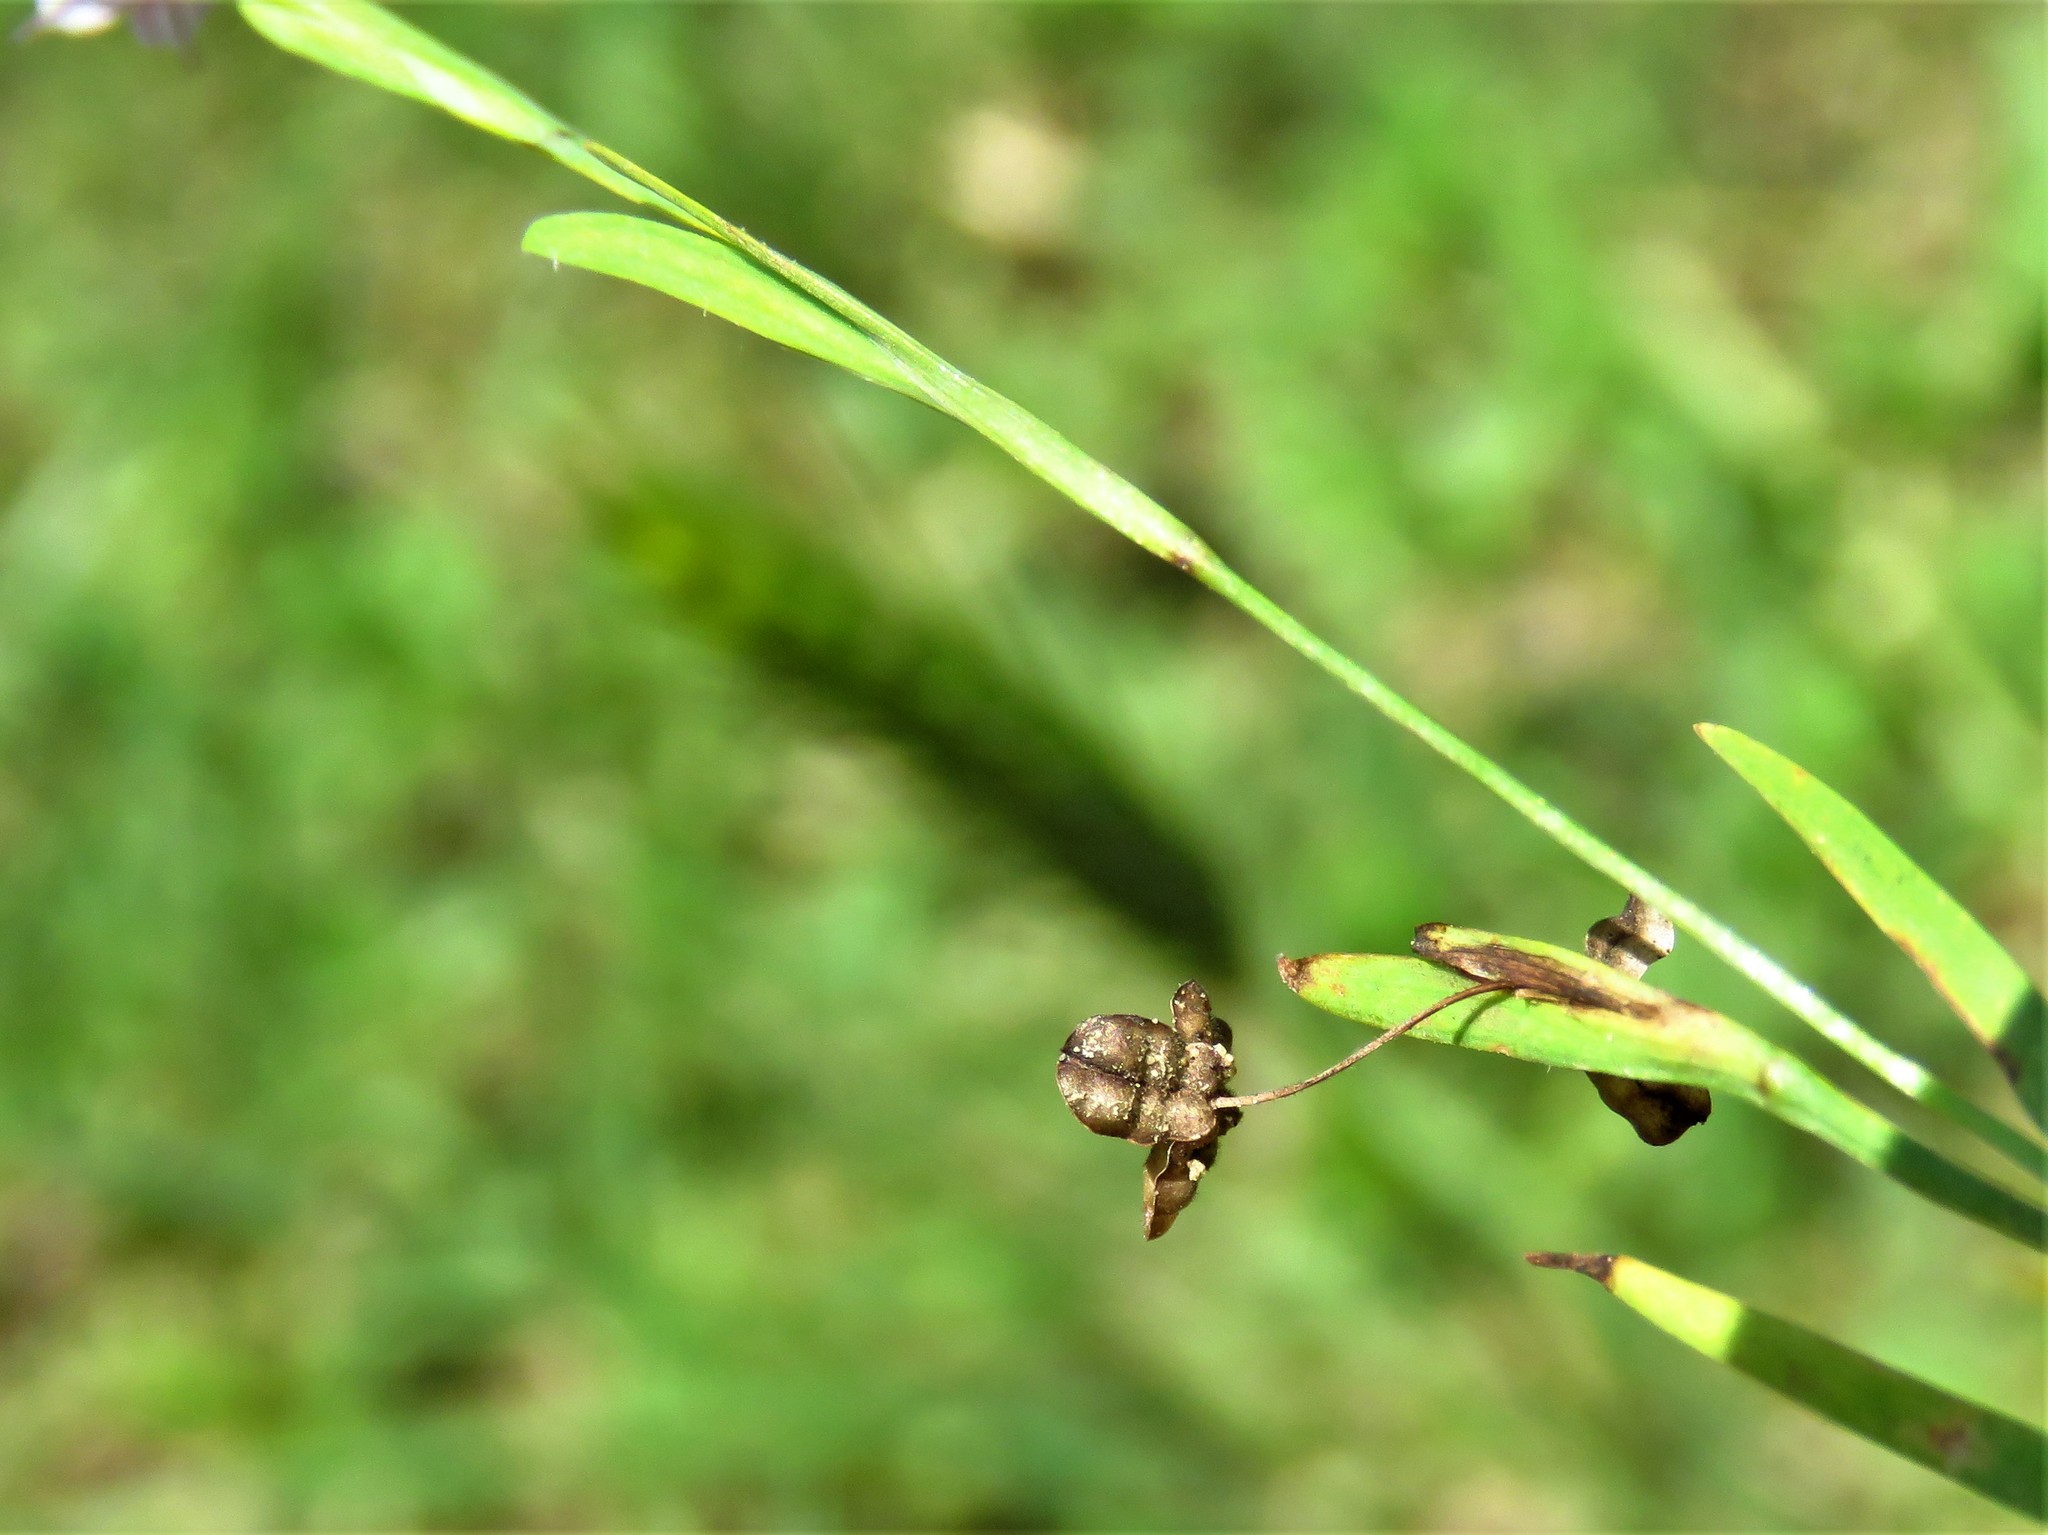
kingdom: Plantae
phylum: Tracheophyta
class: Liliopsida
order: Asparagales
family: Iridaceae
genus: Sisyrinchium
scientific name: Sisyrinchium minus
